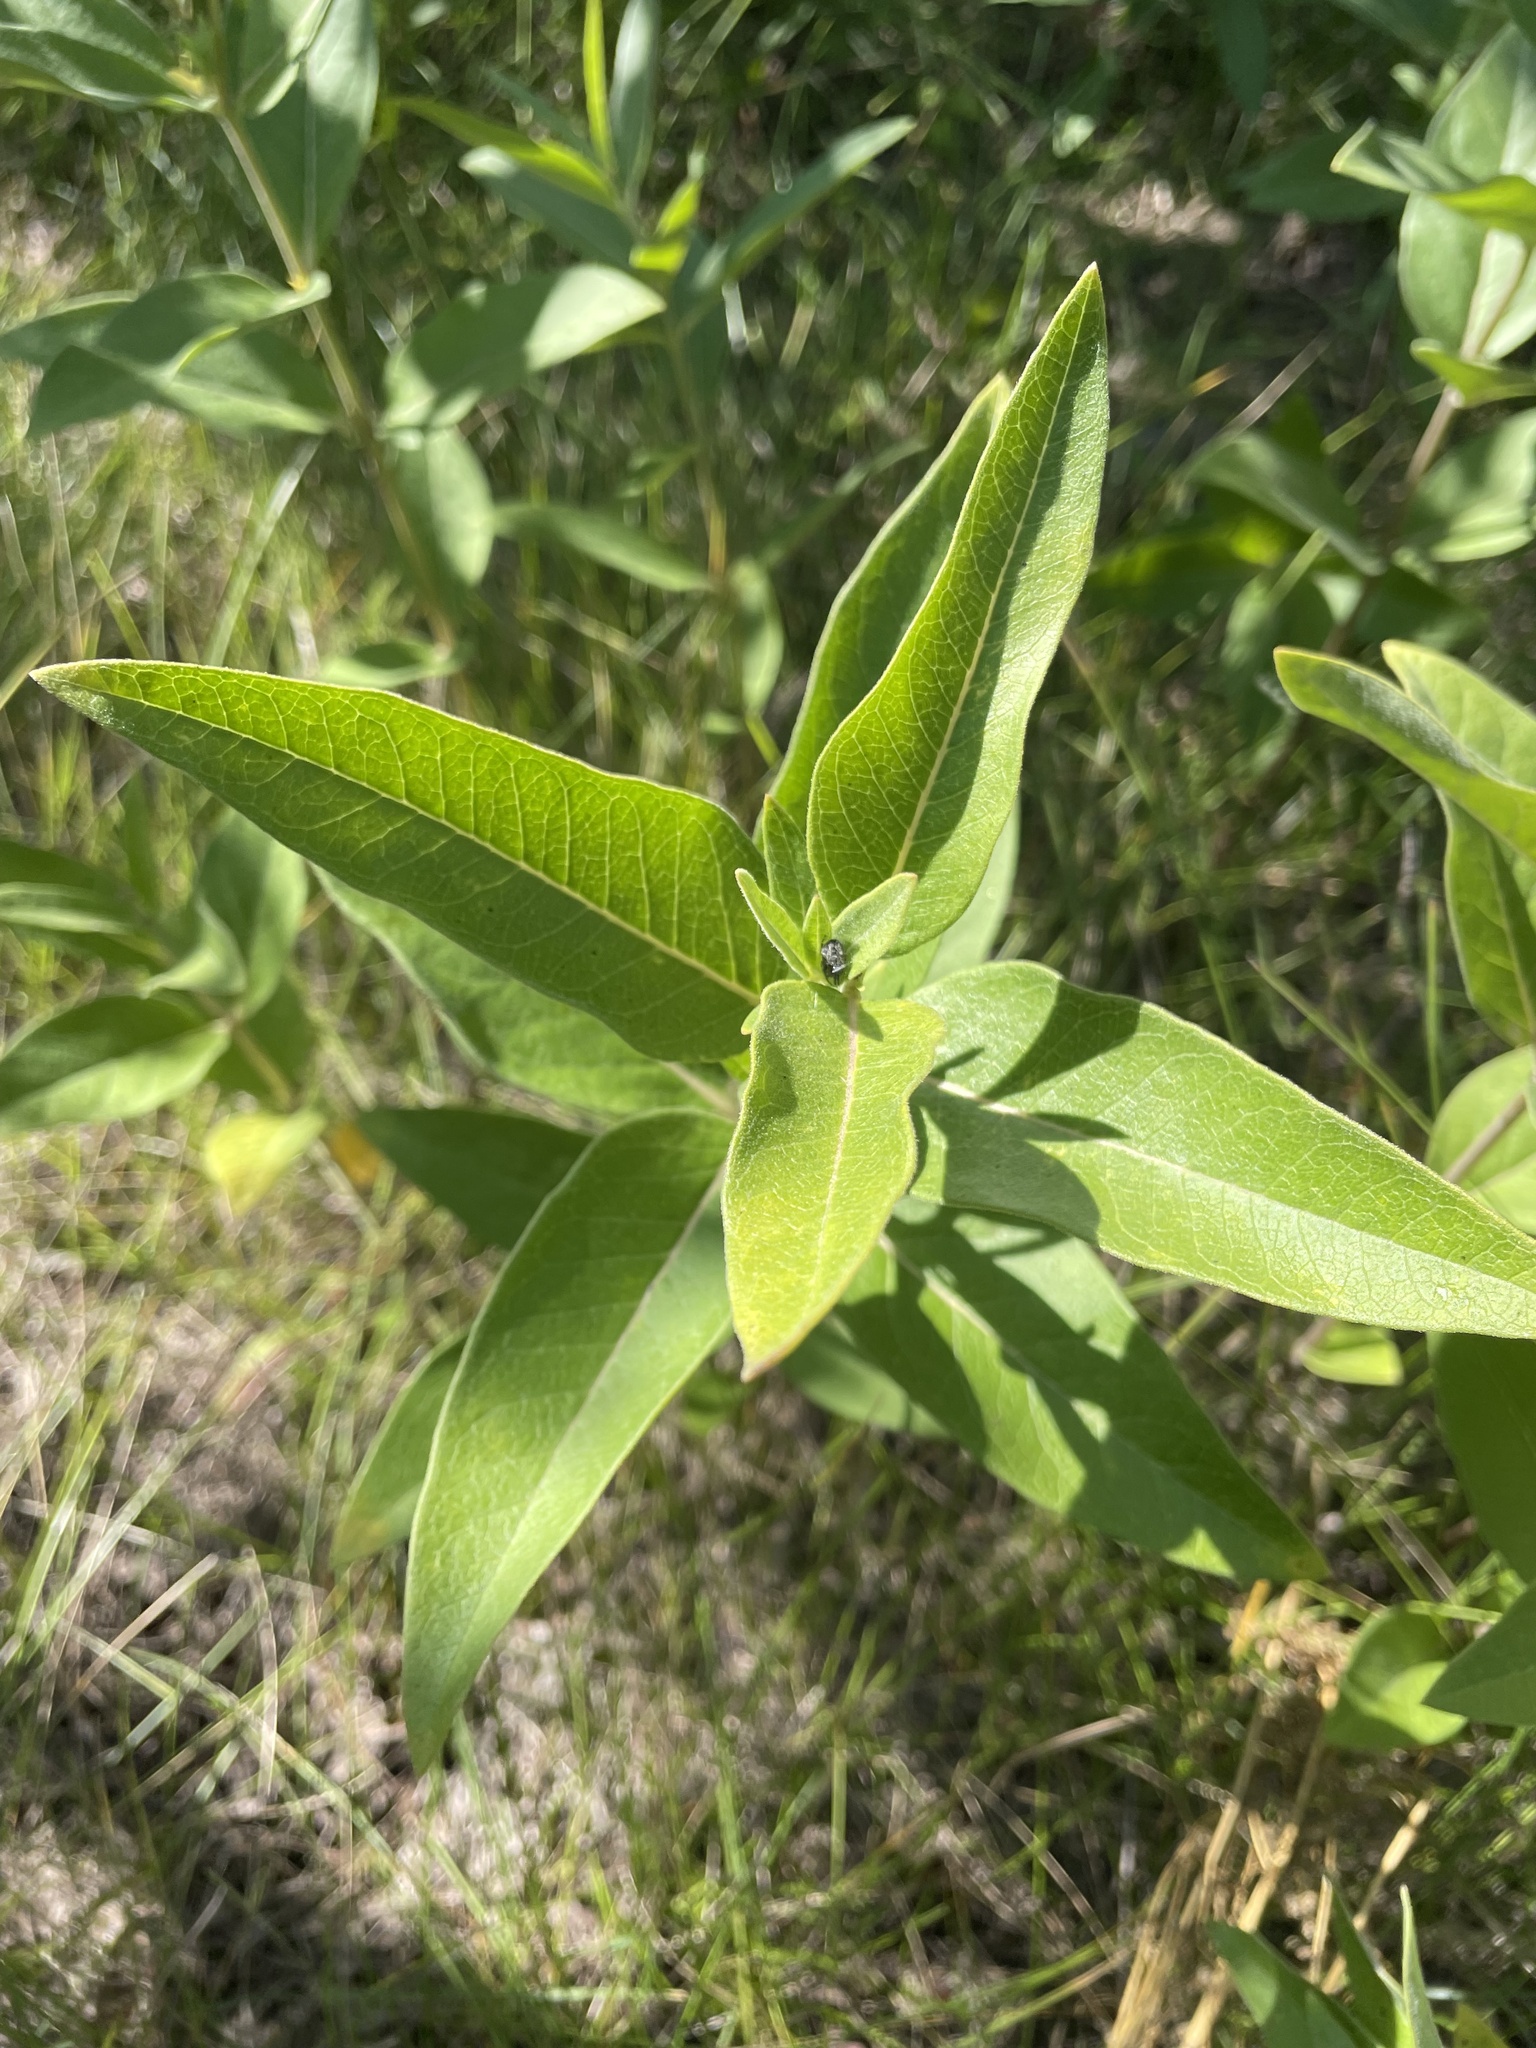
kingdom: Plantae
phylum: Tracheophyta
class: Magnoliopsida
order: Gentianales
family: Apocynaceae
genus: Asclepias
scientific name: Asclepias ovalifolia
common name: Dwarf milkweed
